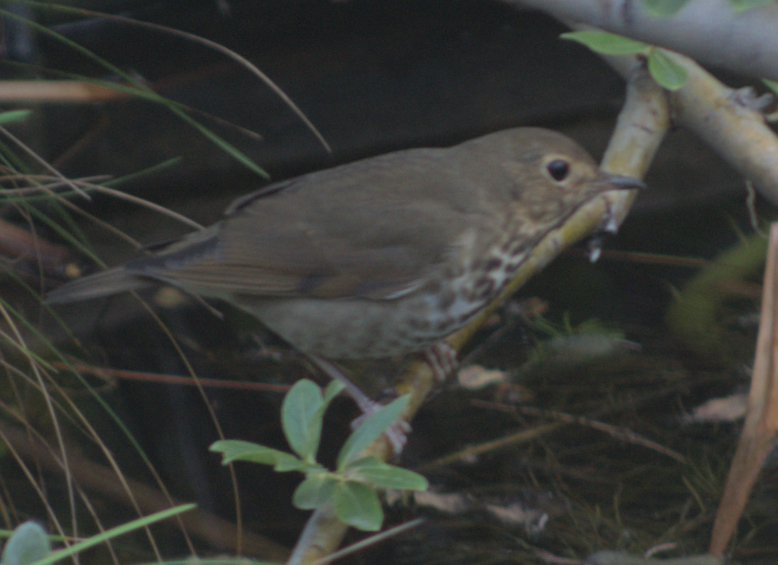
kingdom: Animalia
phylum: Chordata
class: Aves
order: Passeriformes
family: Turdidae
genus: Catharus
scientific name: Catharus ustulatus
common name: Swainson's thrush
